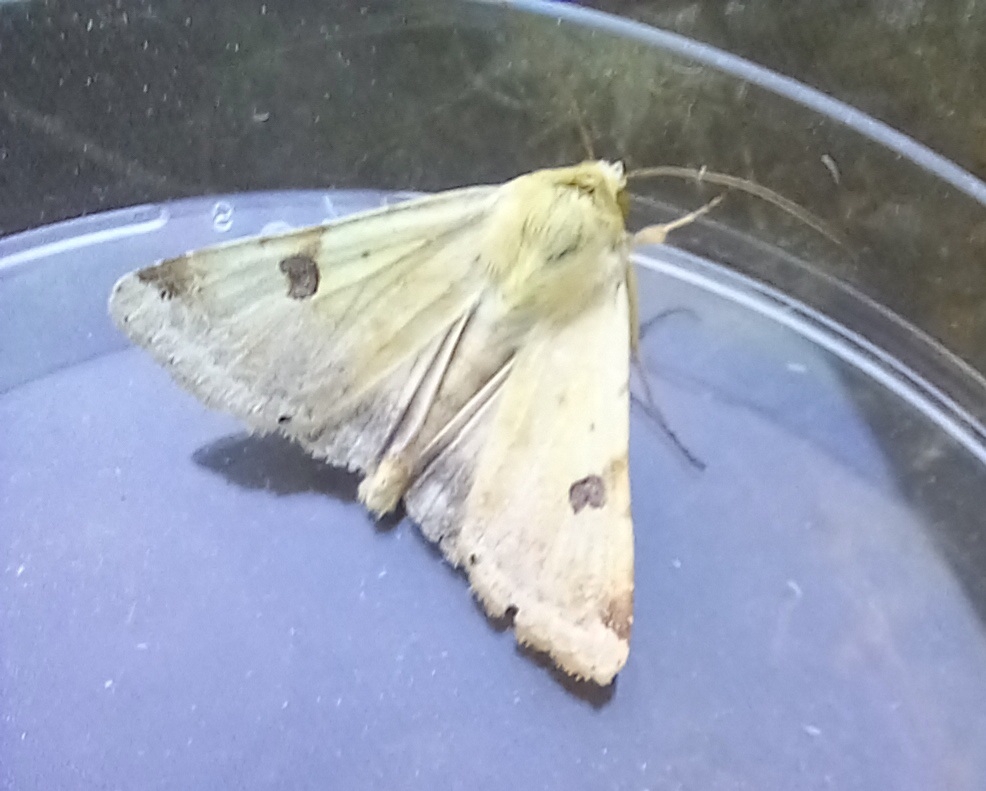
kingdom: Animalia
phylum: Arthropoda
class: Insecta
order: Lepidoptera
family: Noctuidae
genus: Heliothis
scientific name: Heliothis peltigera
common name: Bordered straw
